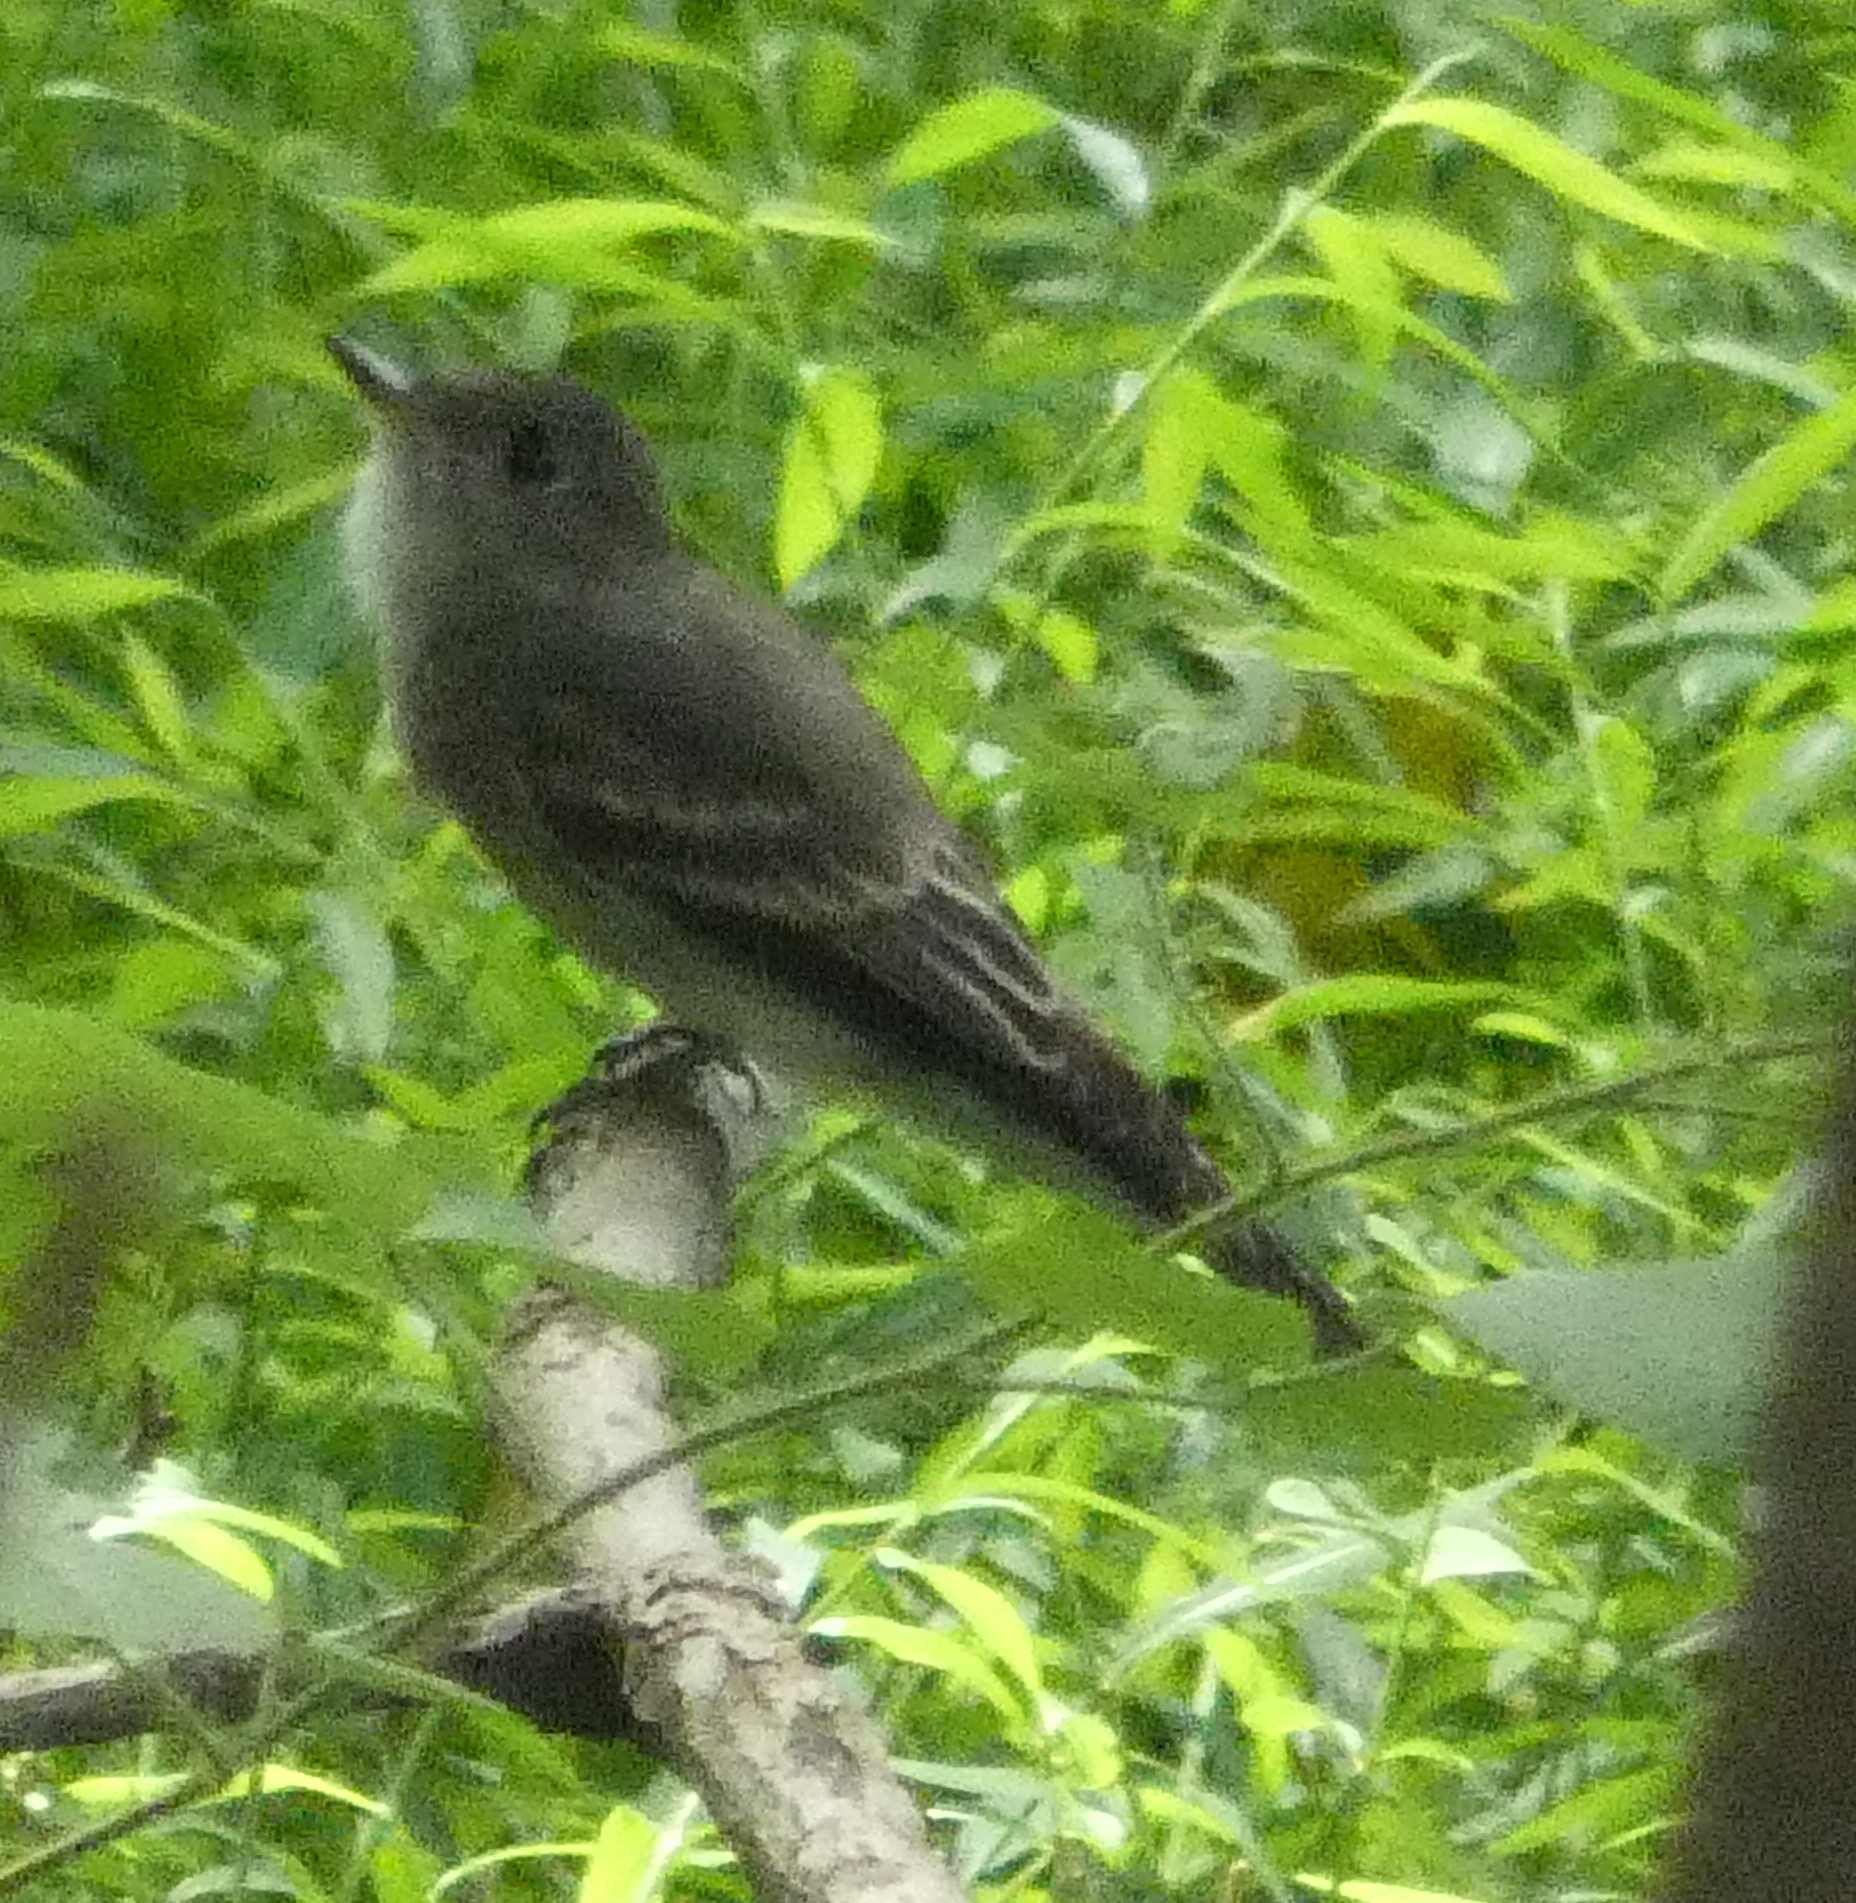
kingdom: Animalia
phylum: Chordata
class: Aves
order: Passeriformes
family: Tyrannidae
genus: Contopus
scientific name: Contopus virens
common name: Eastern wood-pewee
